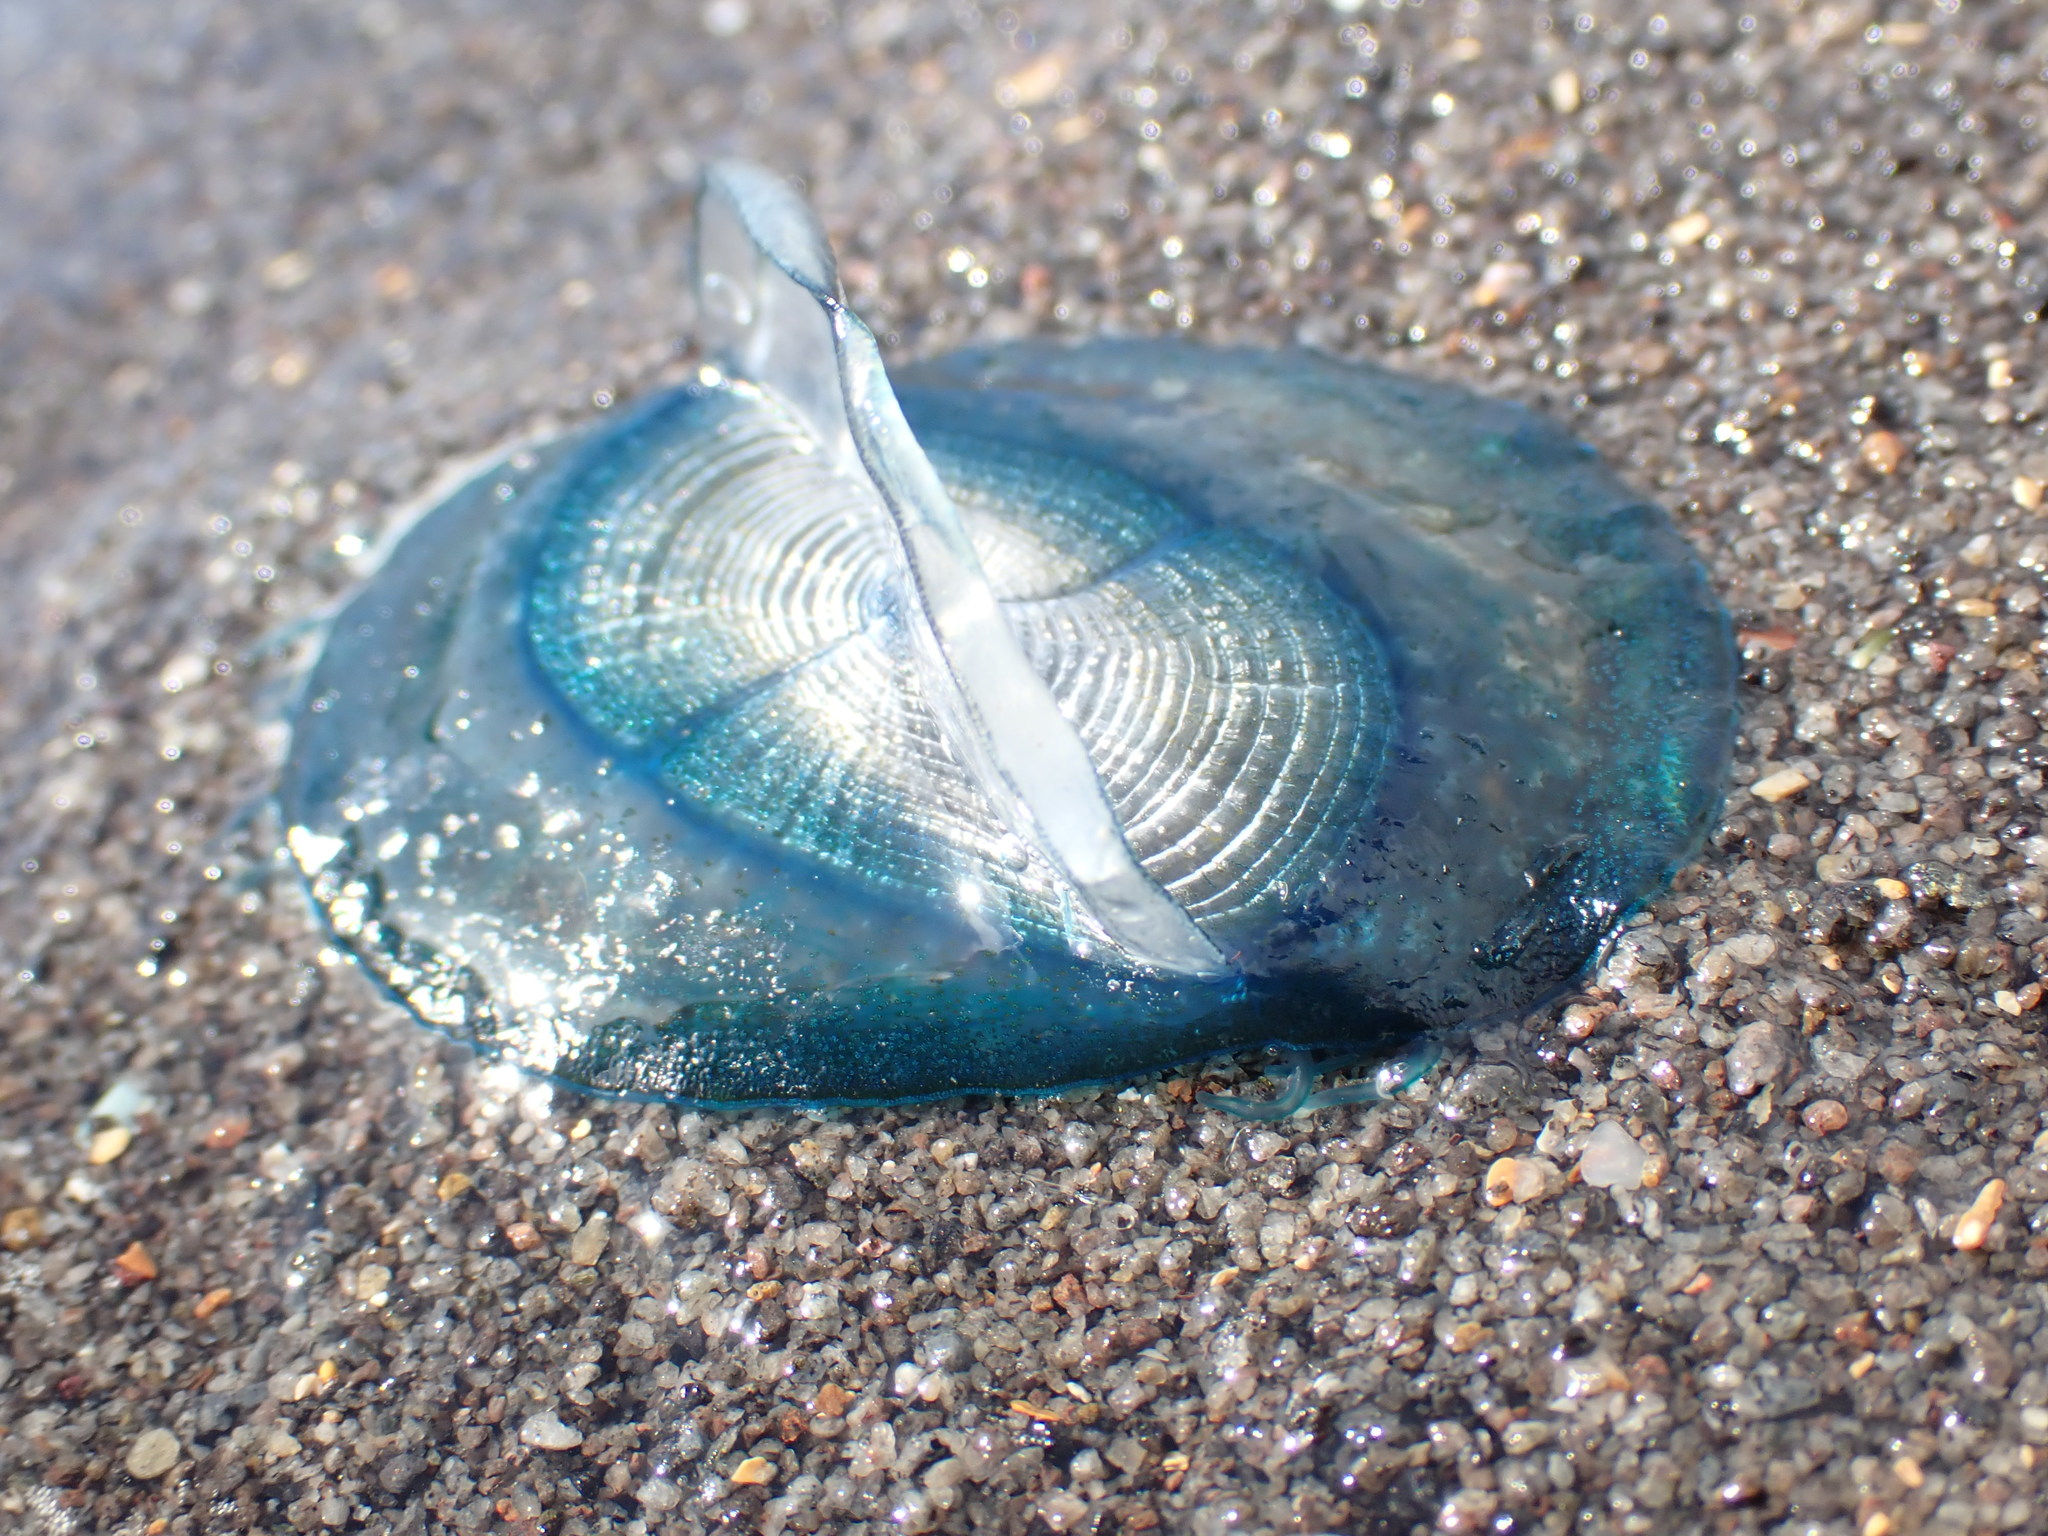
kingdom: Animalia
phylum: Cnidaria
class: Hydrozoa
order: Anthoathecata
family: Porpitidae
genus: Velella
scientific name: Velella velella
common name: By-the-wind-sailor
